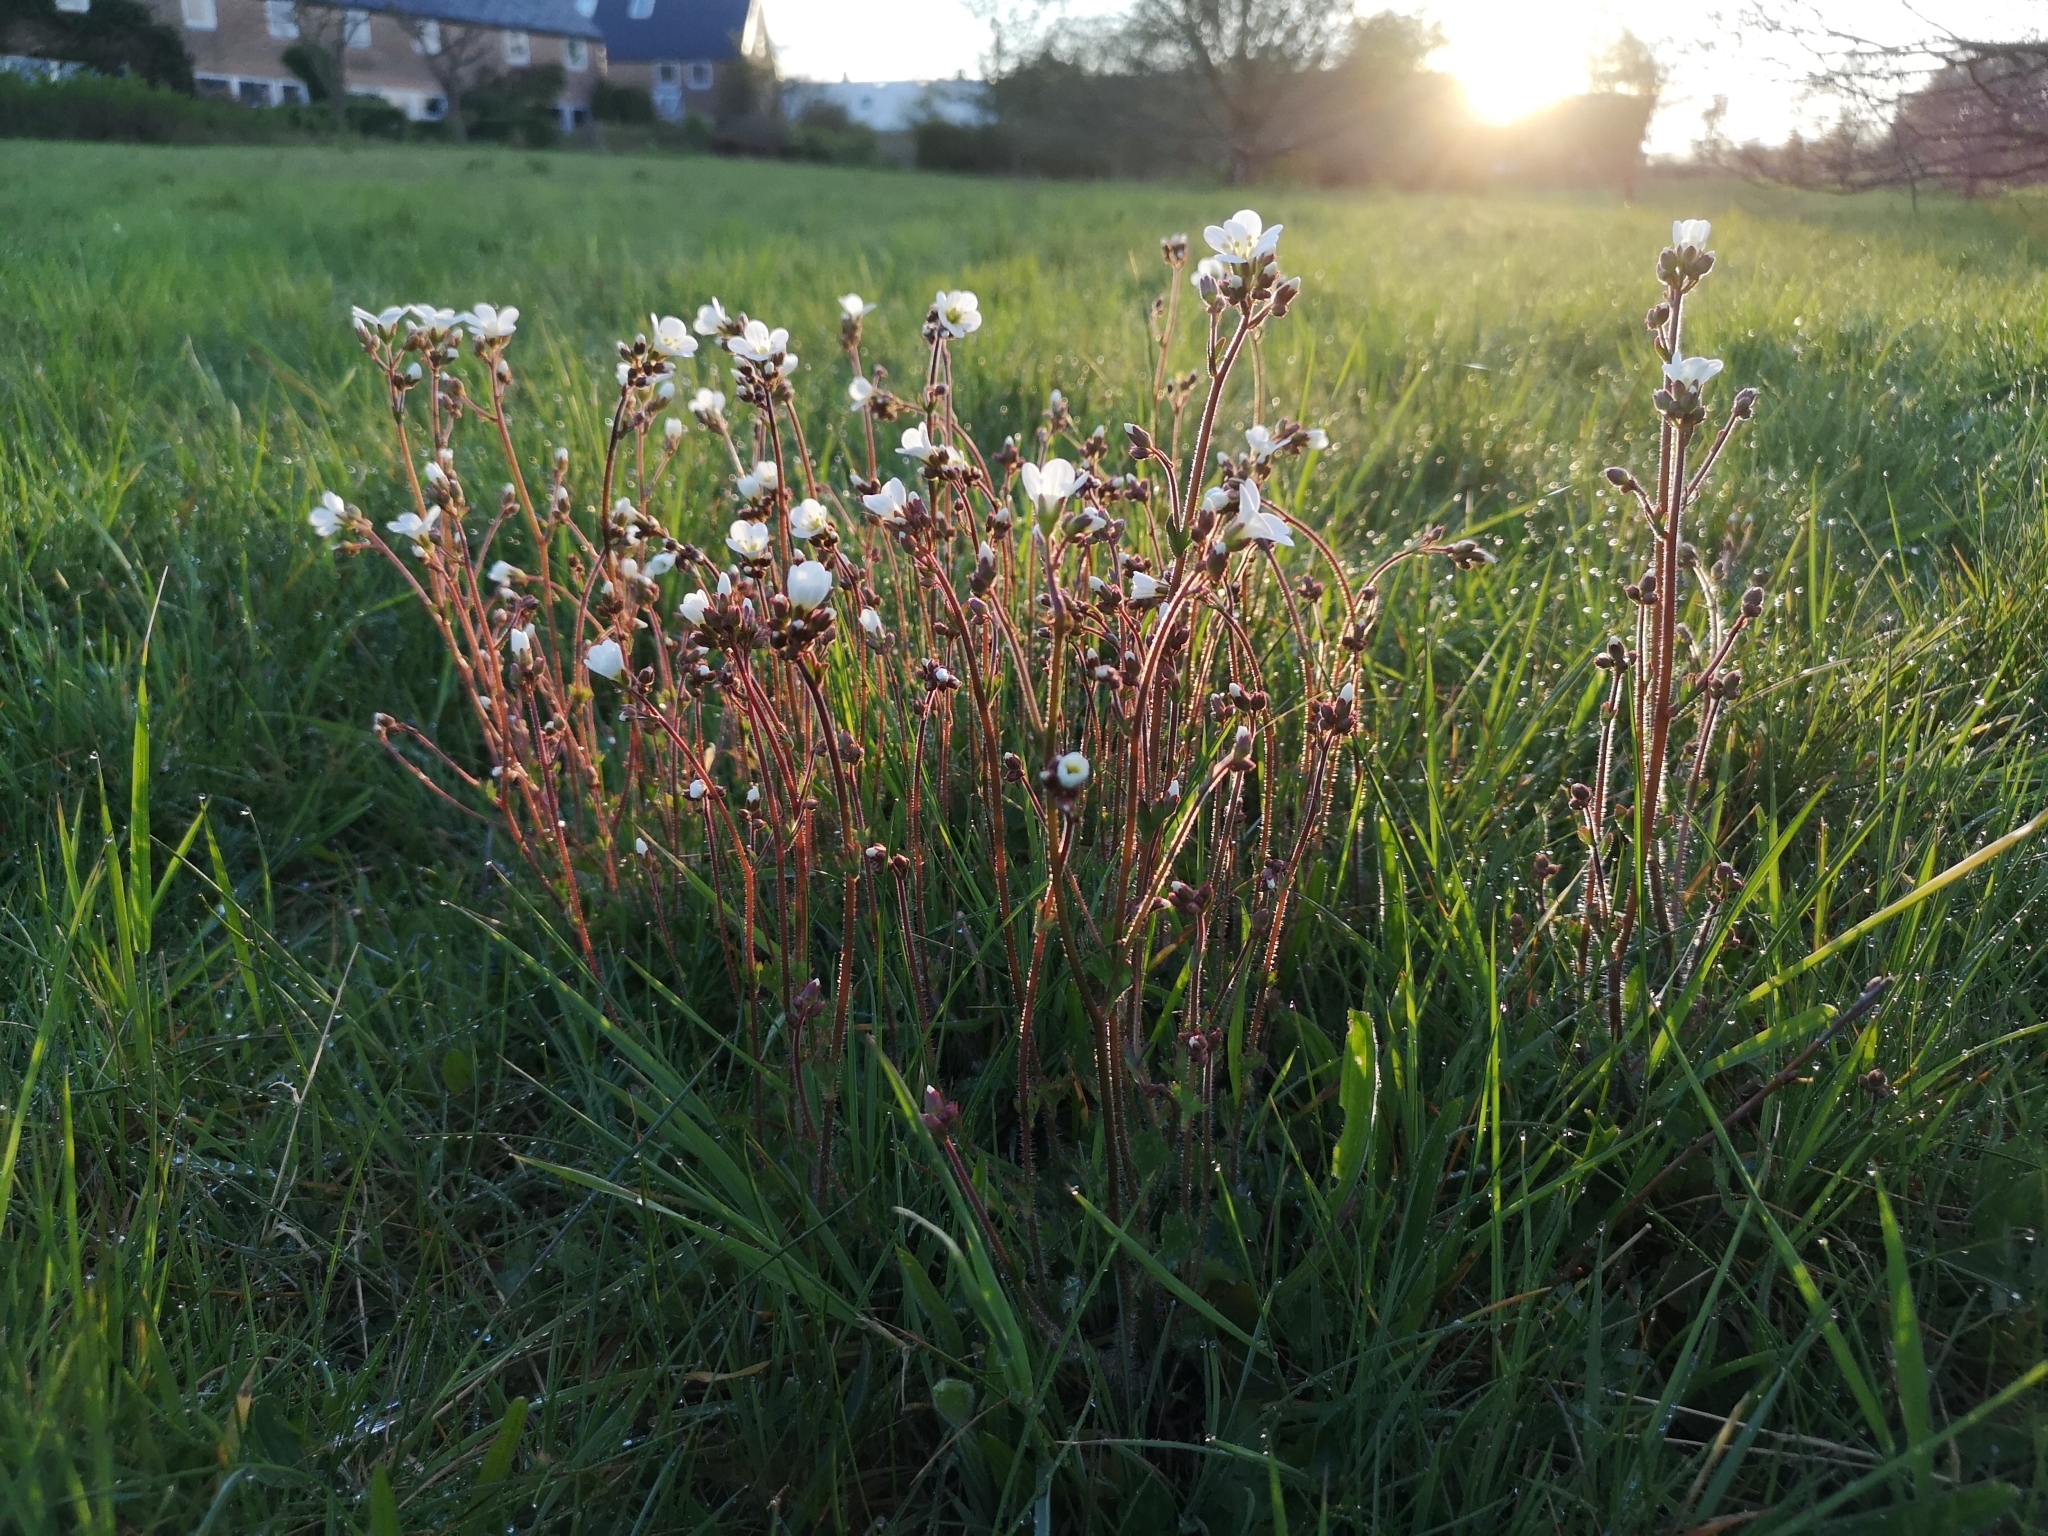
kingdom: Plantae
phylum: Tracheophyta
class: Magnoliopsida
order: Saxifragales
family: Saxifragaceae
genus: Saxifraga
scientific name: Saxifraga granulata
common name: Meadow saxifrage
